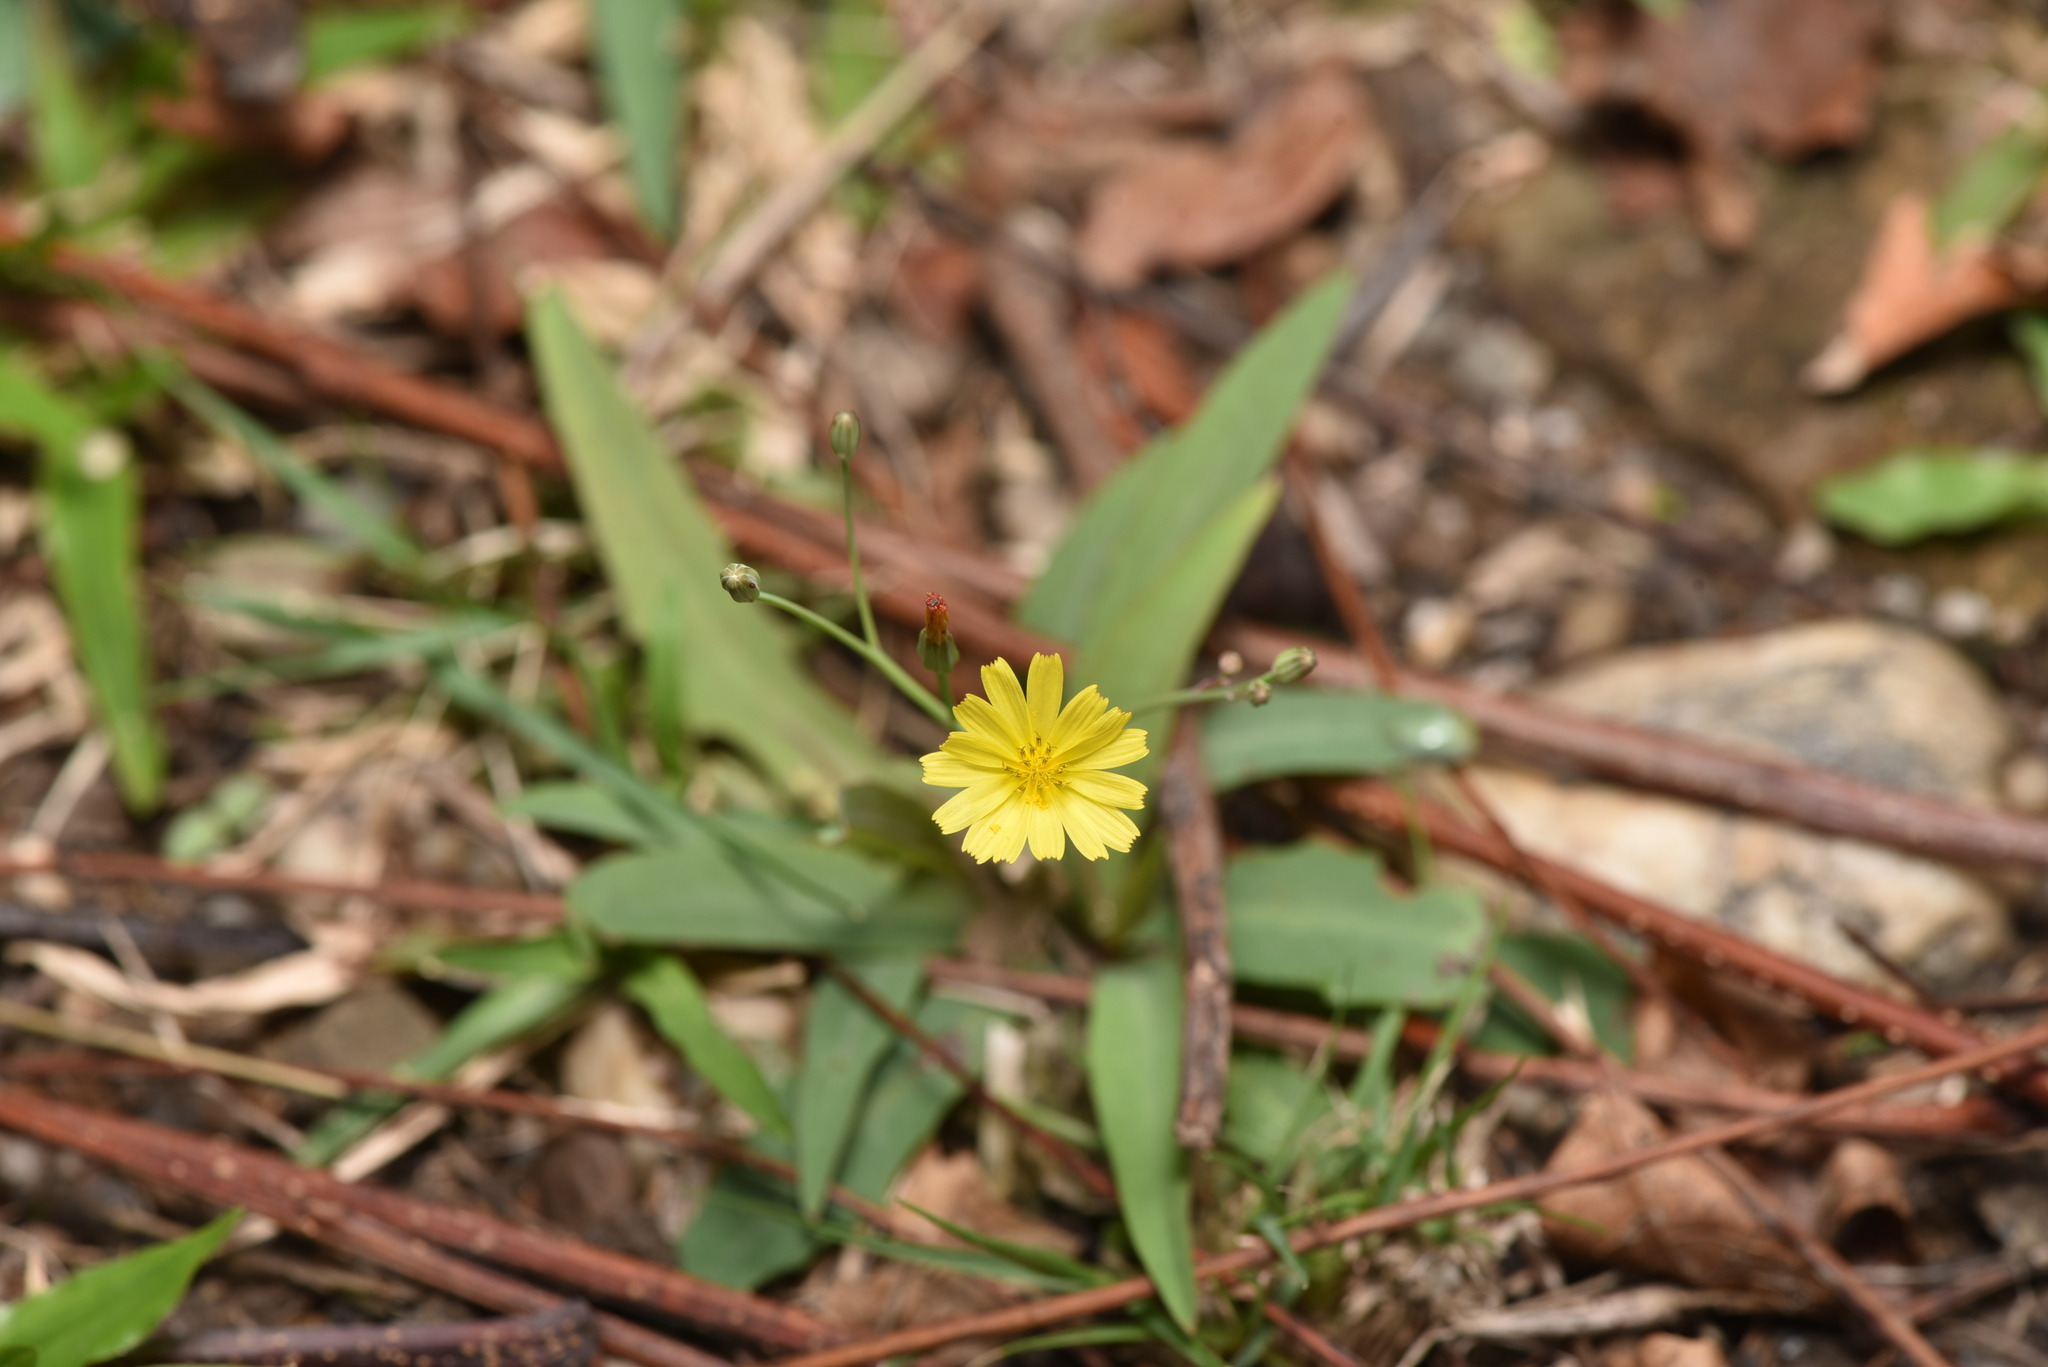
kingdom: Plantae
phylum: Tracheophyta
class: Magnoliopsida
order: Asterales
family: Asteraceae
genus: Ixeris
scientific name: Ixeris chinensis
